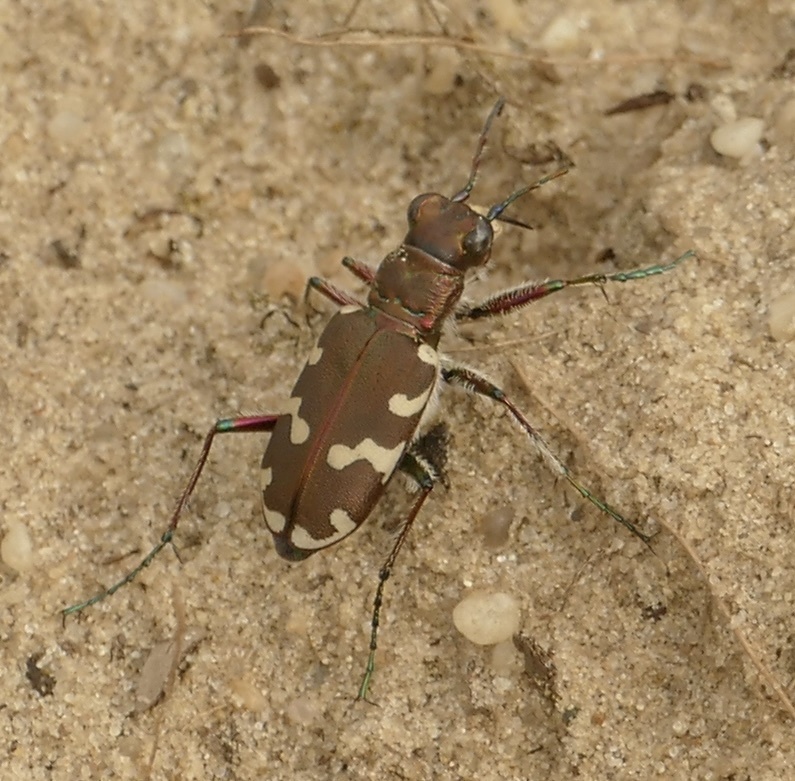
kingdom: Animalia
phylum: Arthropoda
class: Insecta
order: Coleoptera
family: Carabidae
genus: Cicindela
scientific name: Cicindela hybrida
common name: Northern dune tiger beetle
